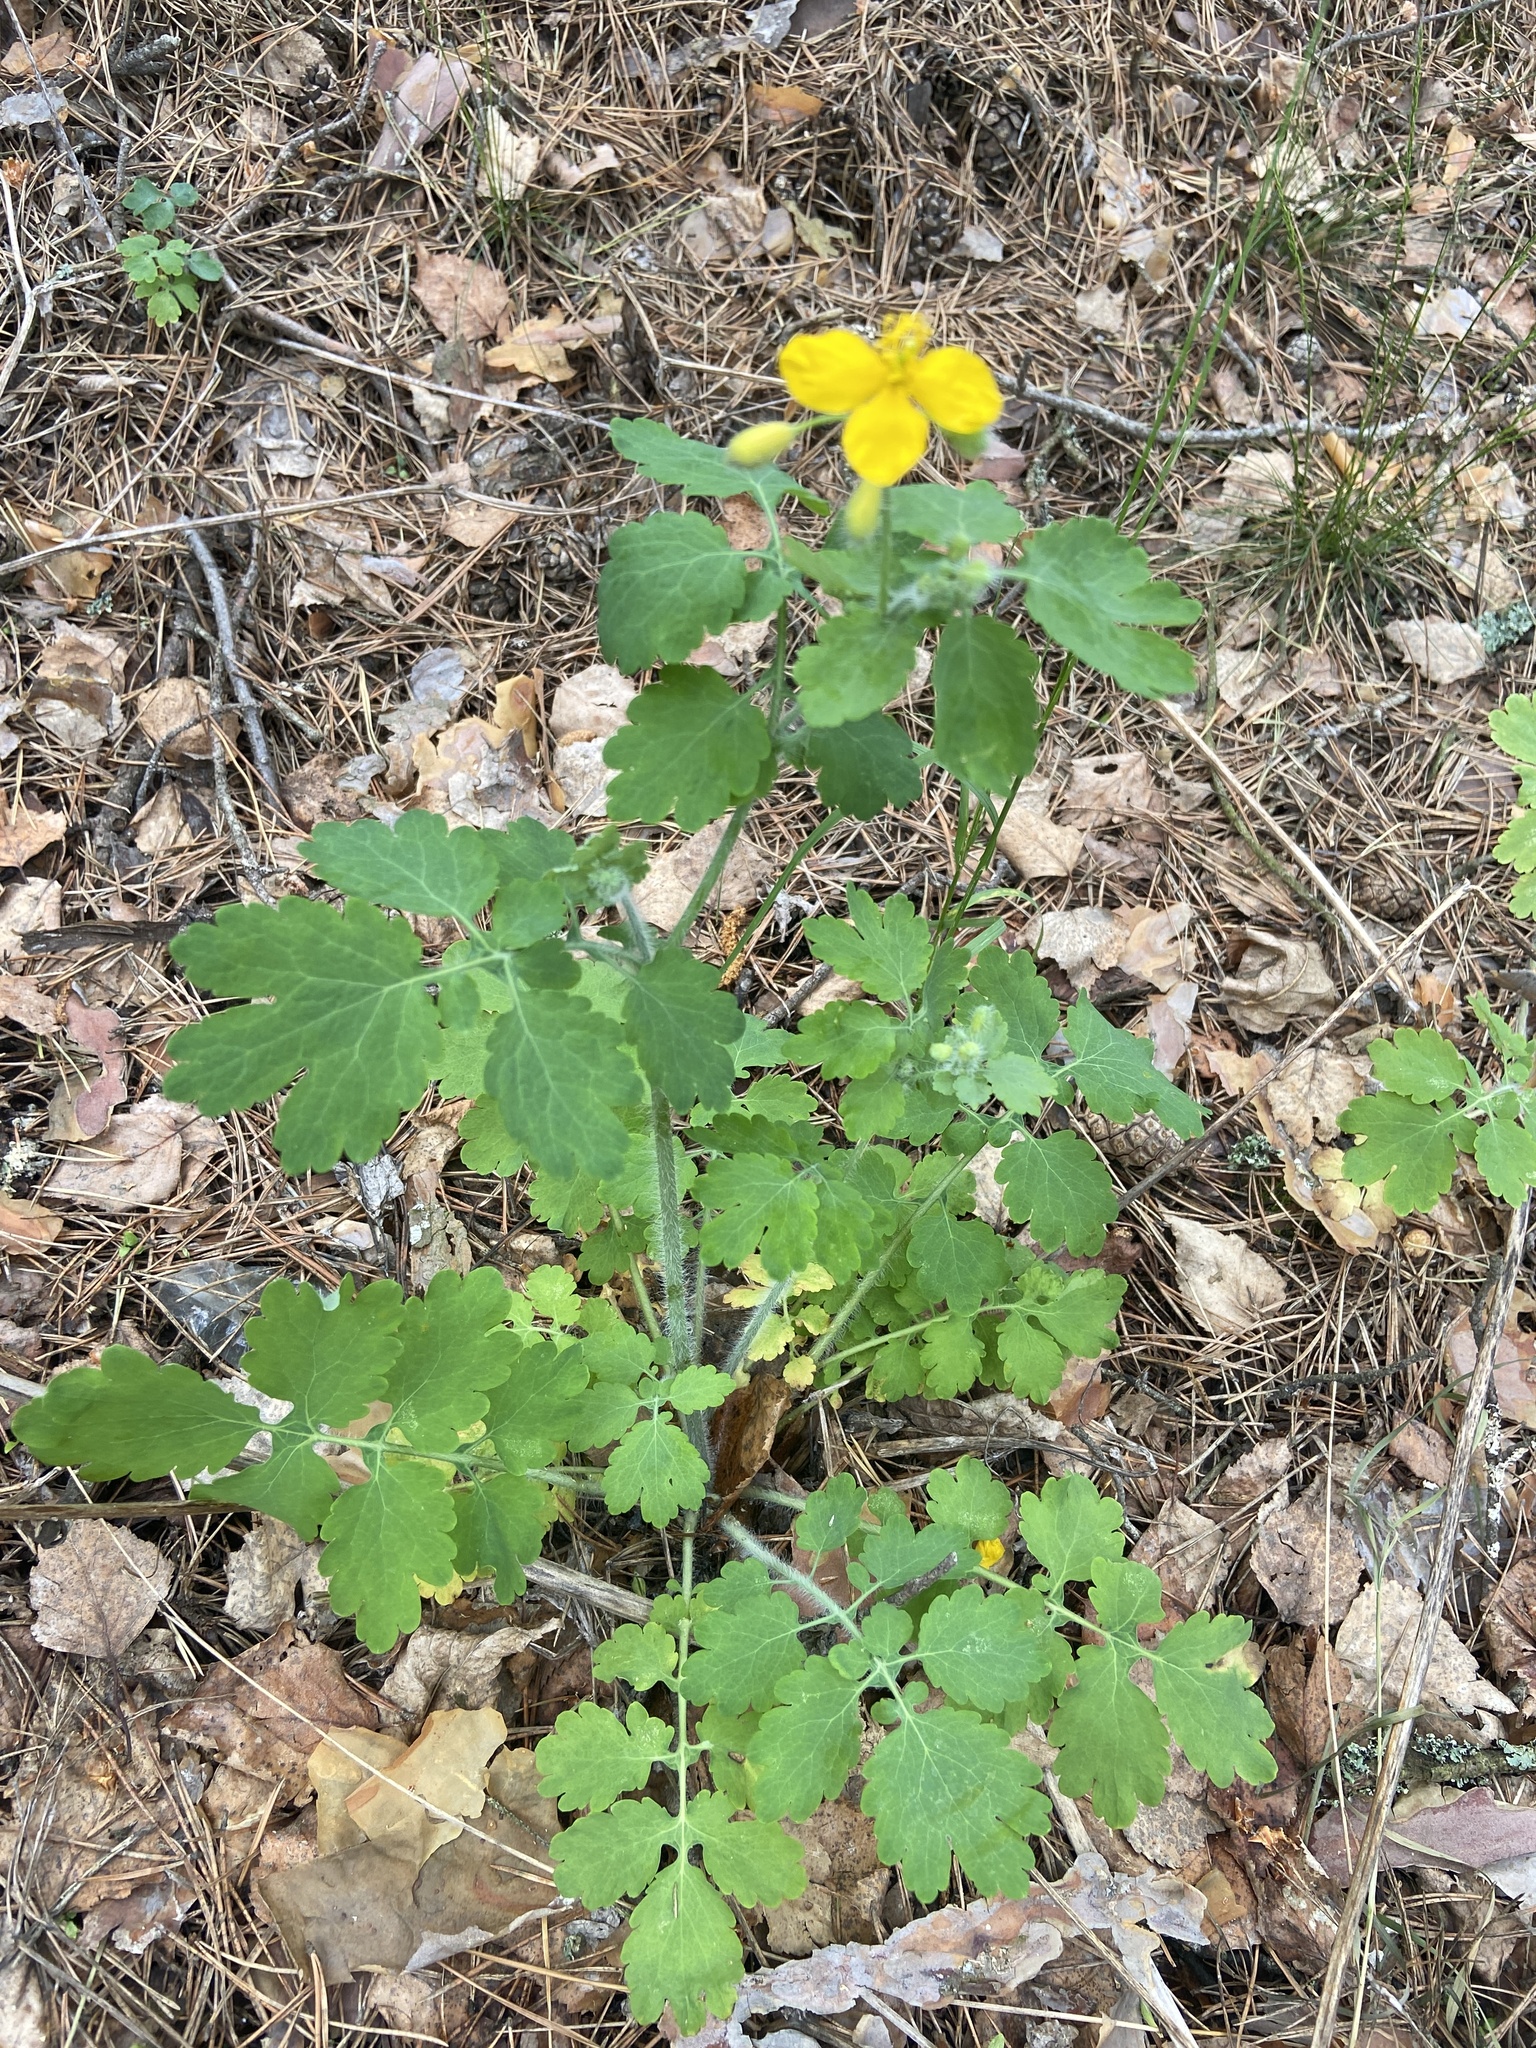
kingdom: Plantae
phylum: Tracheophyta
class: Magnoliopsida
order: Ranunculales
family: Papaveraceae
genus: Chelidonium
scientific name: Chelidonium majus
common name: Greater celandine
